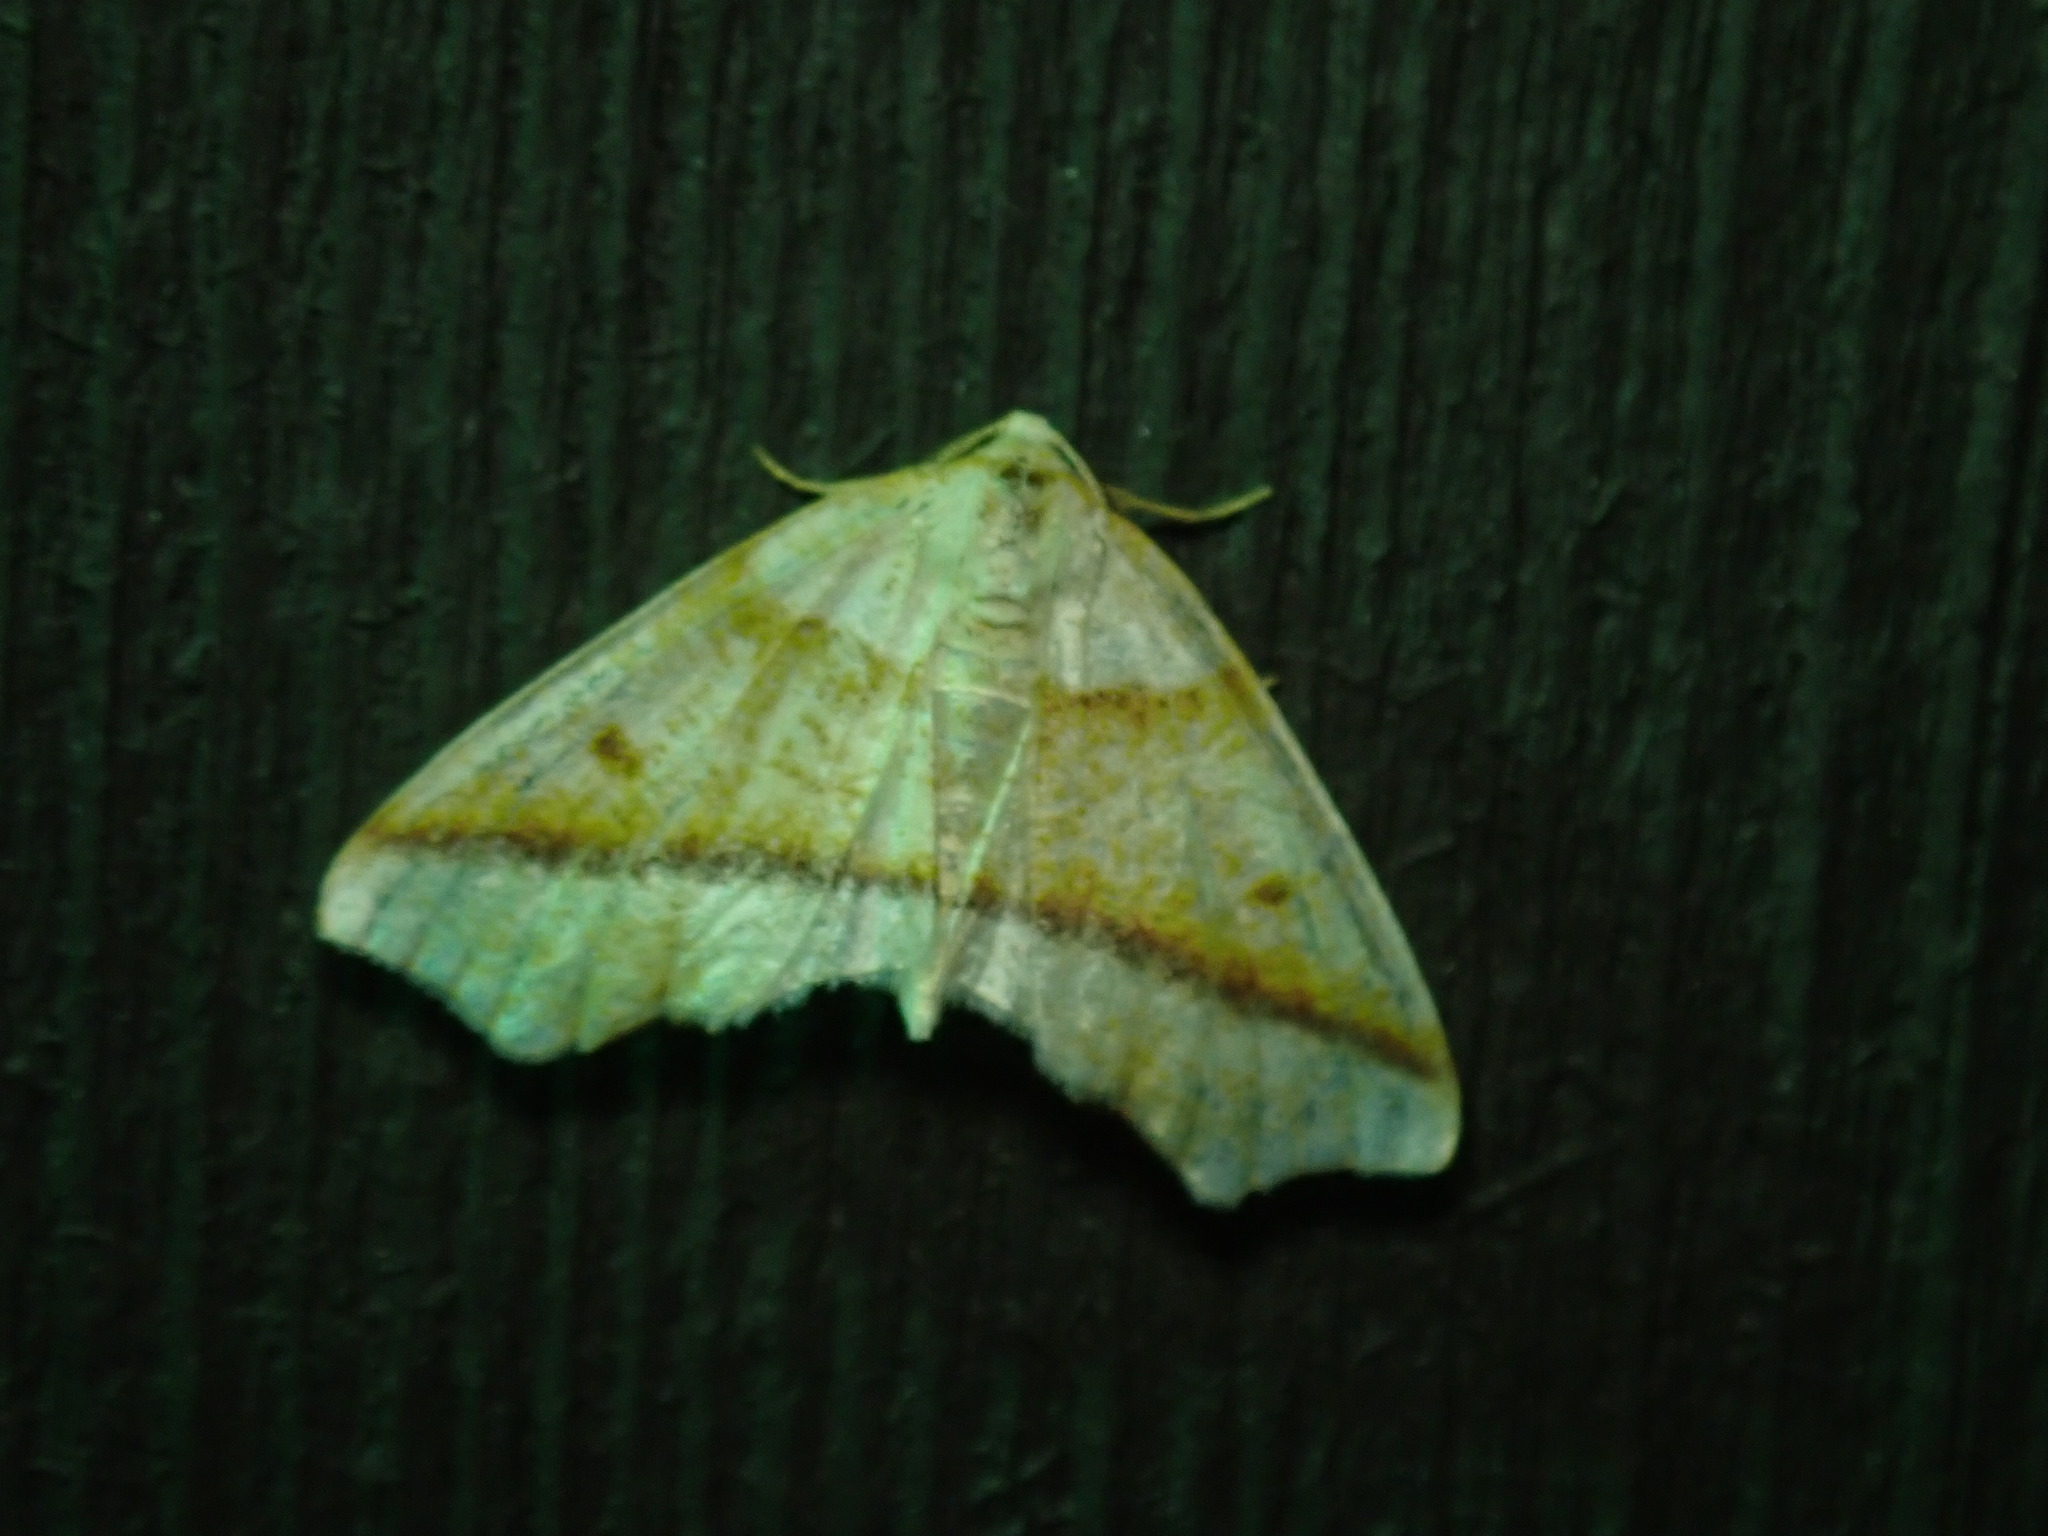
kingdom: Animalia
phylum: Arthropoda
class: Insecta
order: Lepidoptera
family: Geometridae
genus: Plagodis
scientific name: Plagodis alcoolaria
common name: Hollow-spotted plagodis
